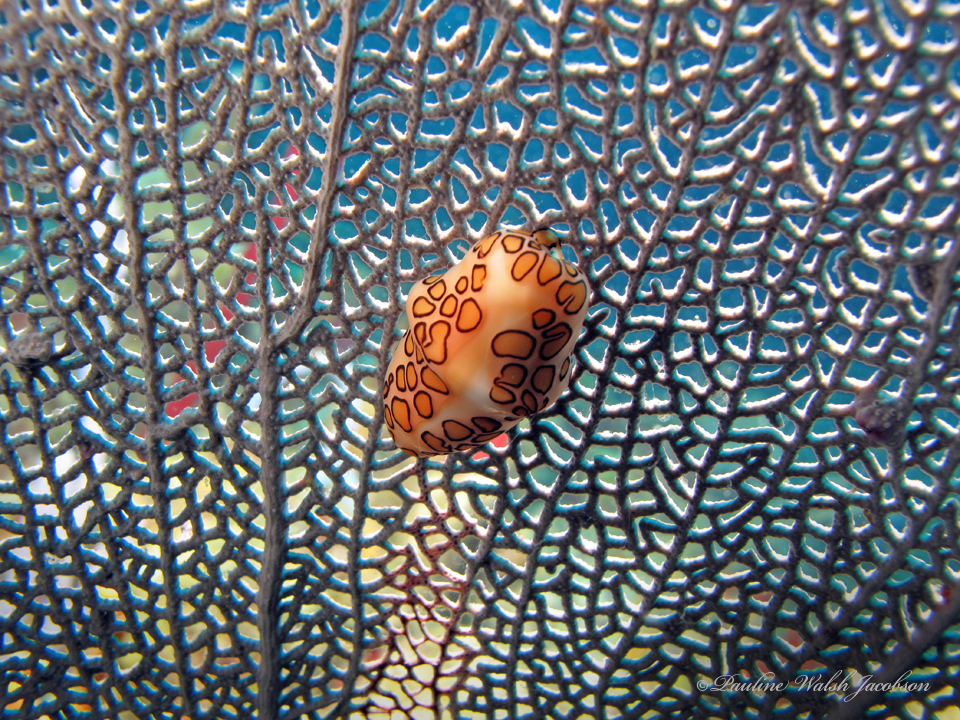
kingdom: Animalia
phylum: Mollusca
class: Gastropoda
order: Littorinimorpha
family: Ovulidae
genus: Cyphoma
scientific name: Cyphoma gibbosum
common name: Flamingo tongue
